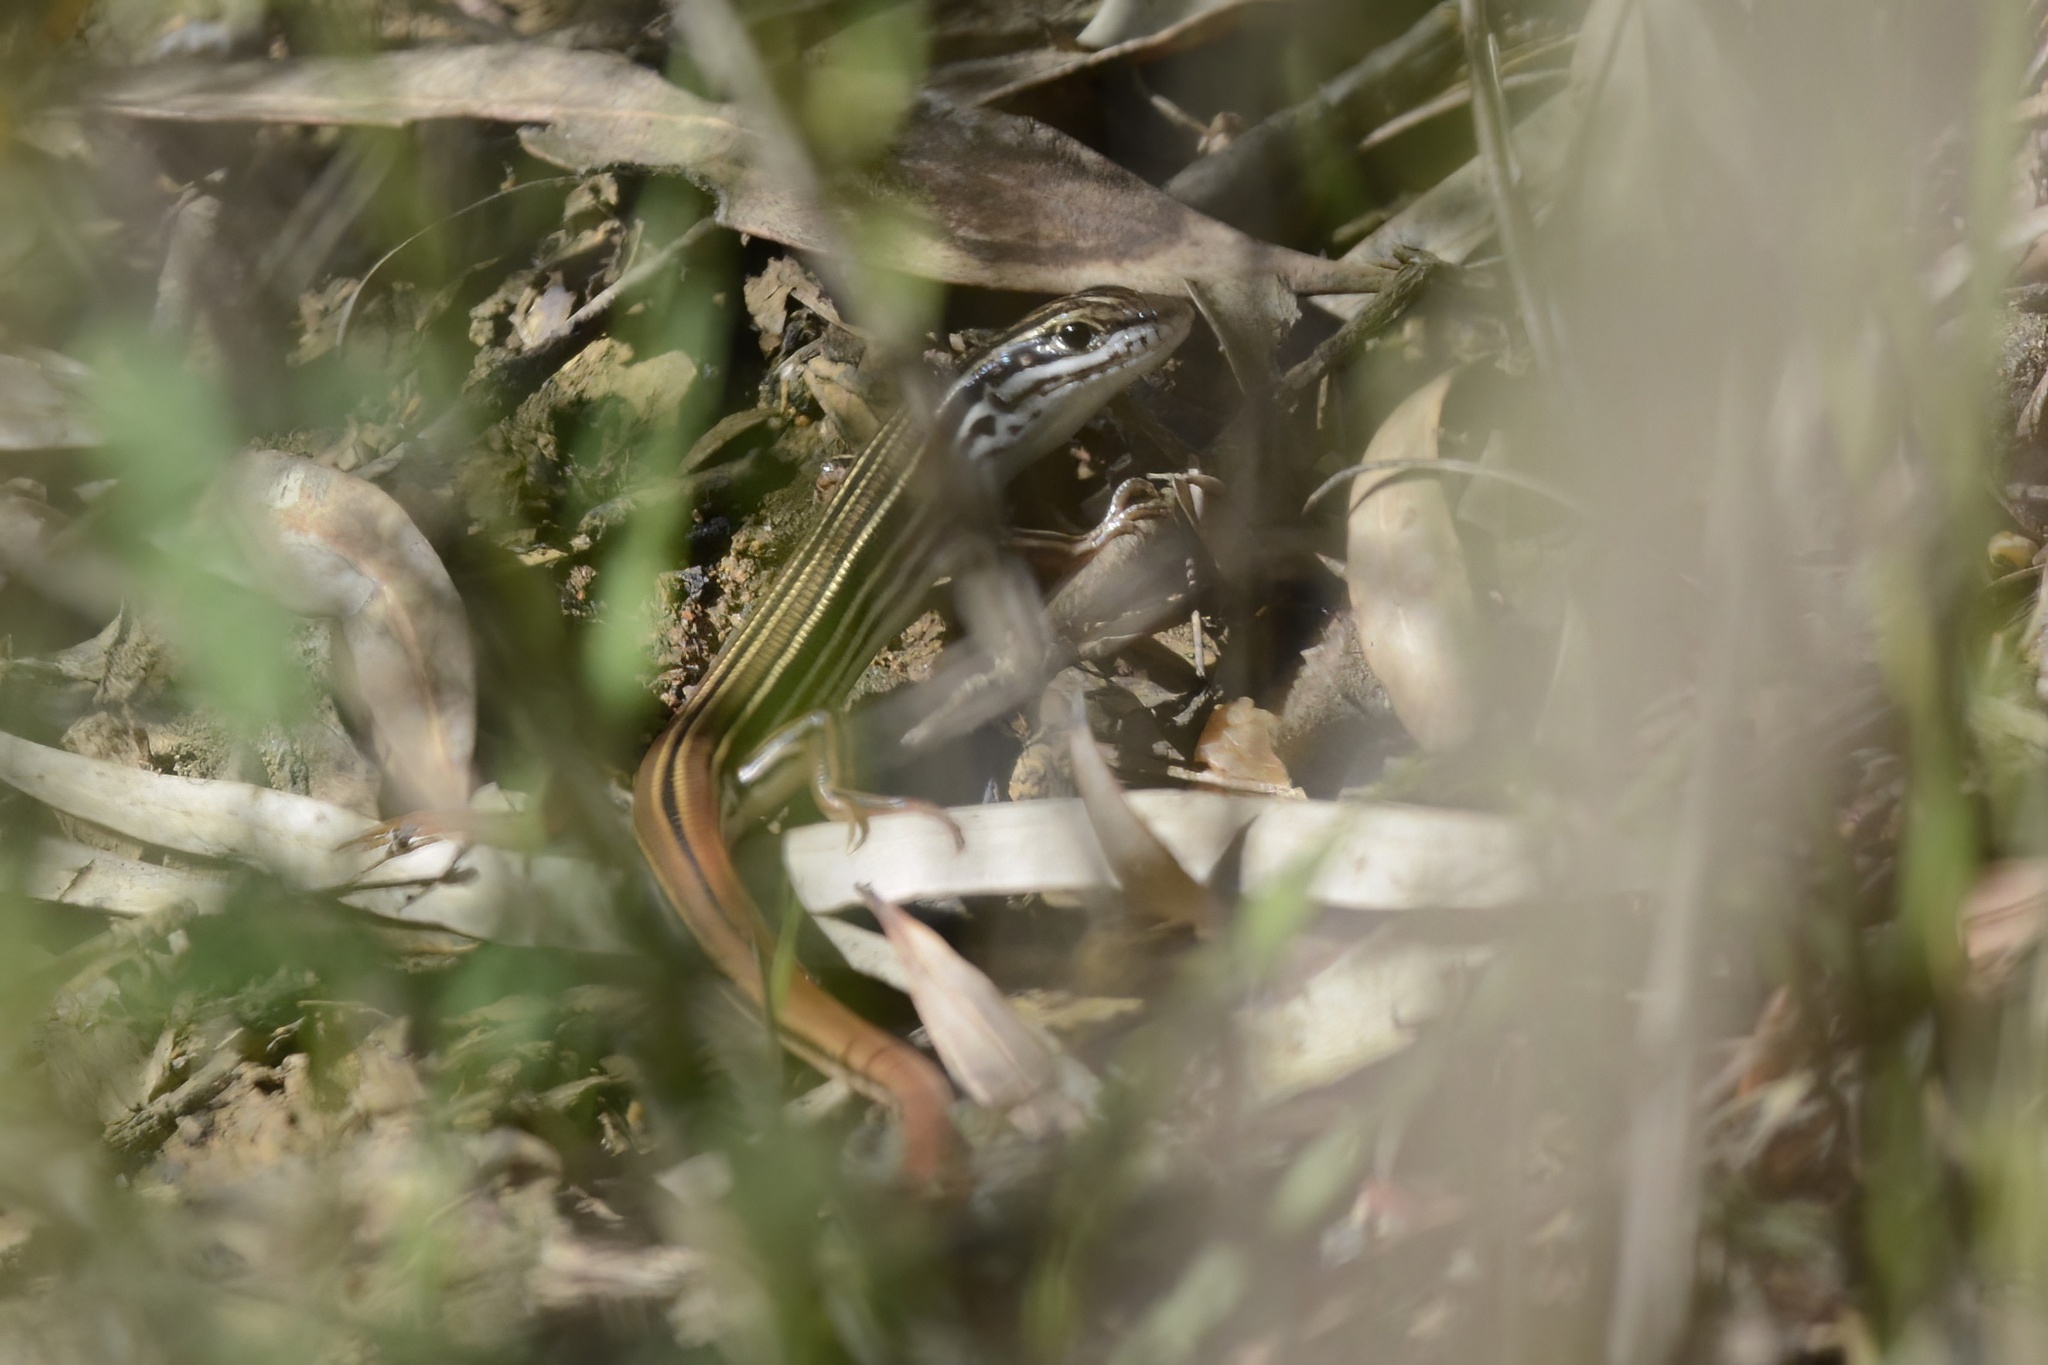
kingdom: Animalia
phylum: Chordata
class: Squamata
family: Scincidae
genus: Ctenotus
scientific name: Ctenotus taeniolatus
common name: Copper-tailed skink
